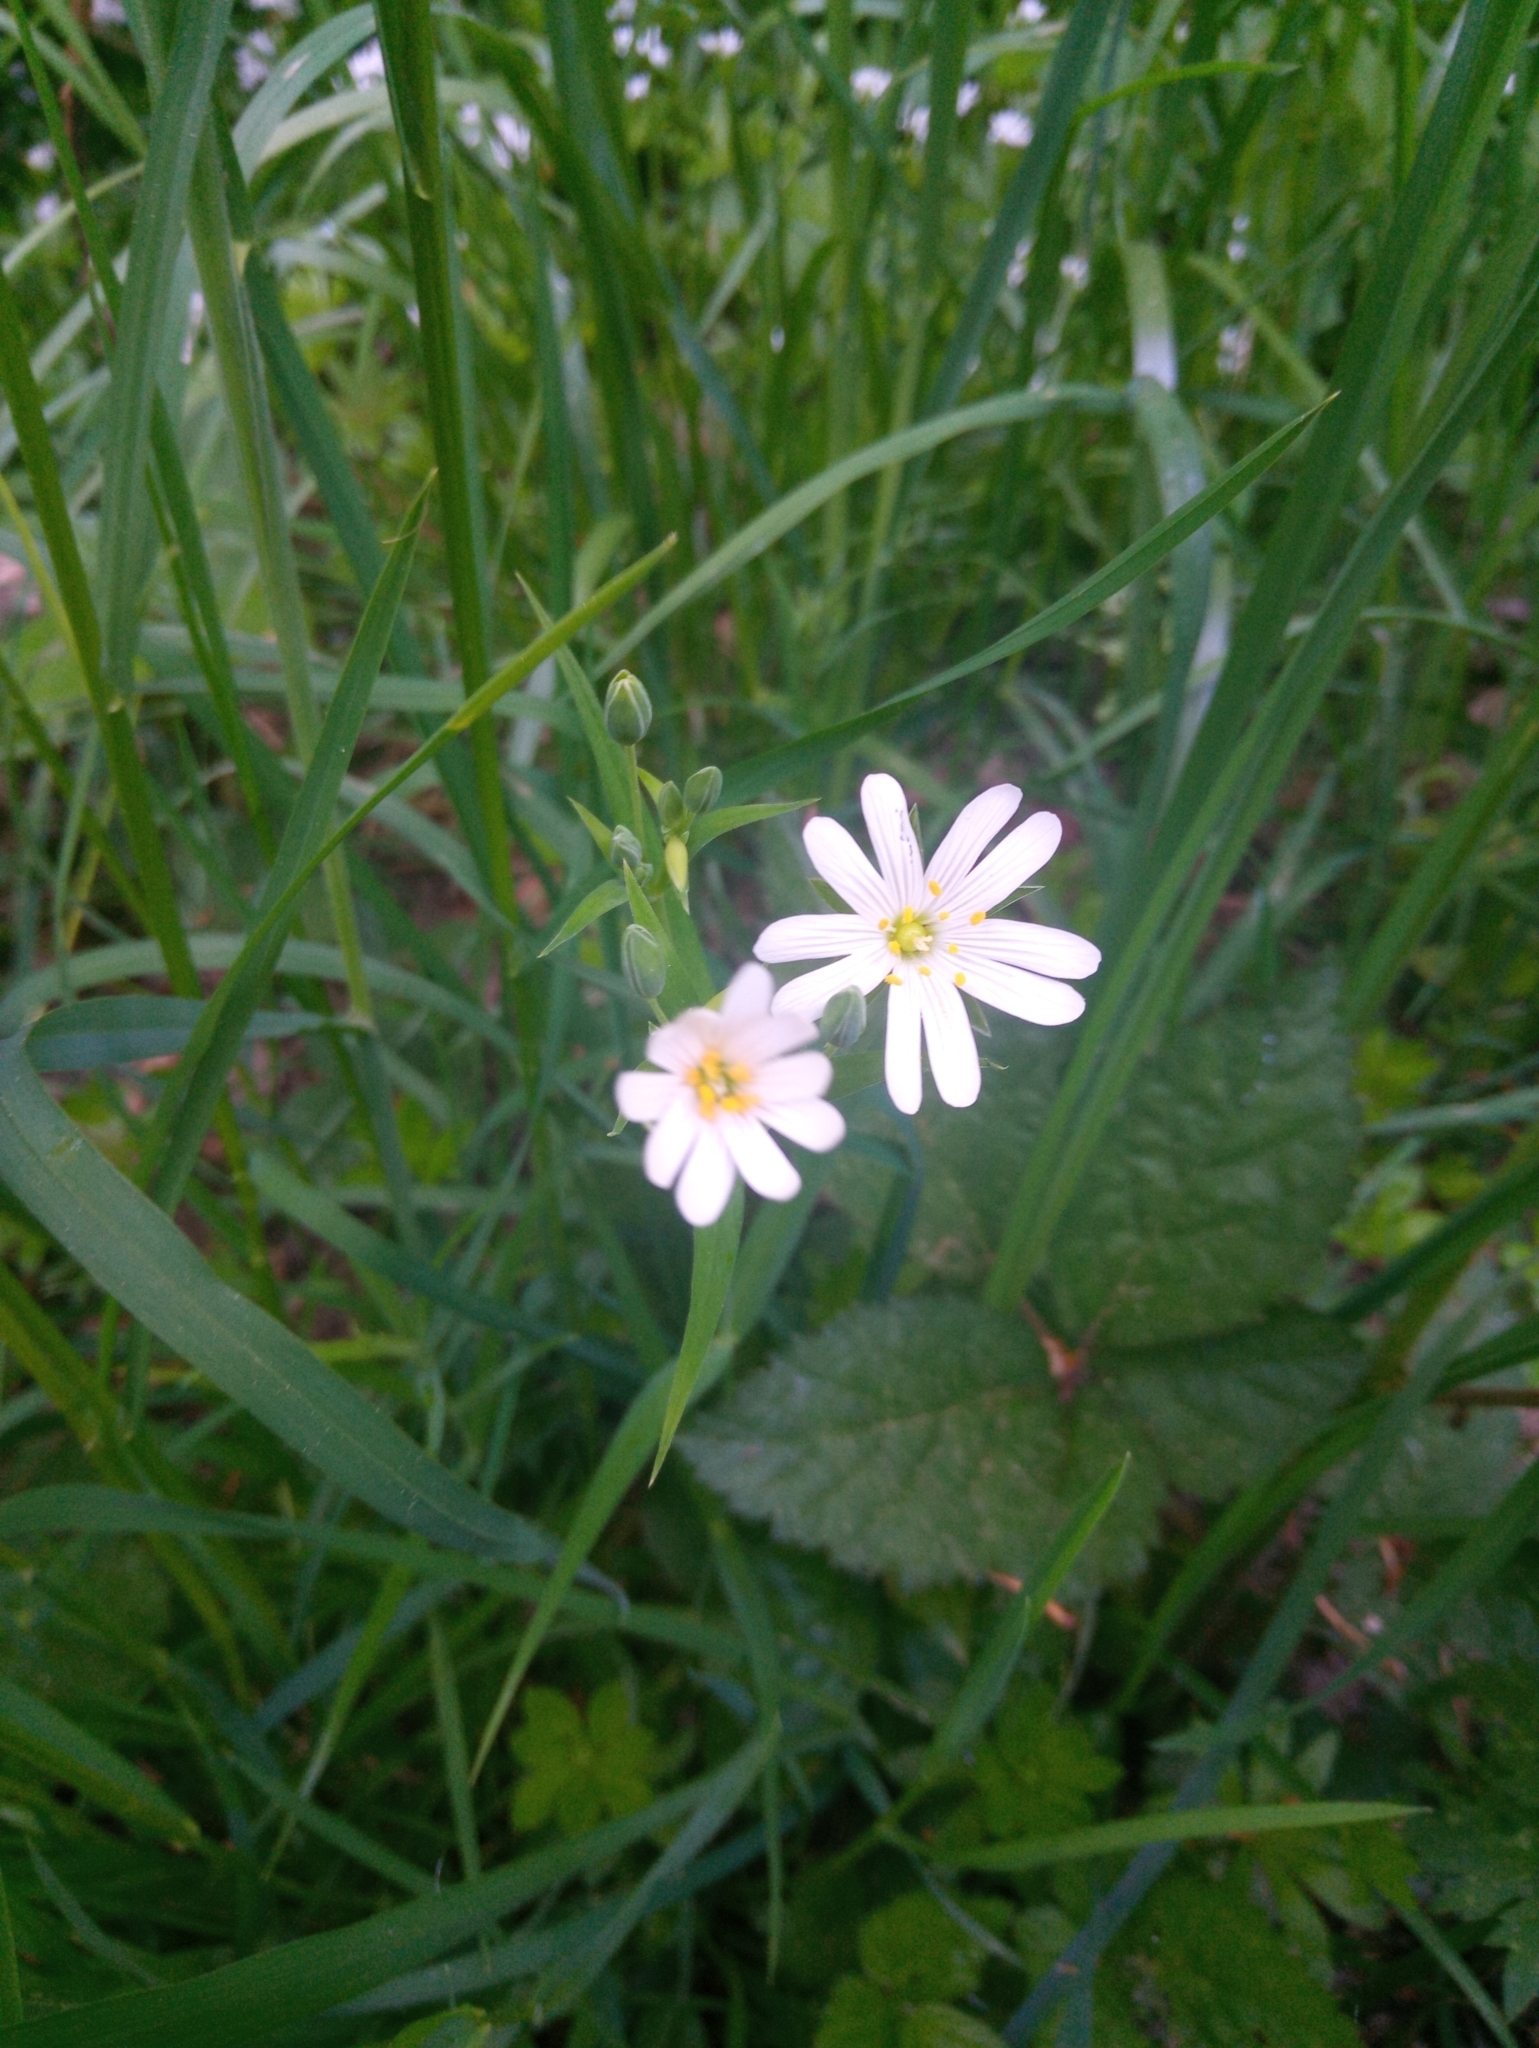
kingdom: Plantae
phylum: Tracheophyta
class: Magnoliopsida
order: Caryophyllales
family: Caryophyllaceae
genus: Rabelera
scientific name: Rabelera holostea
